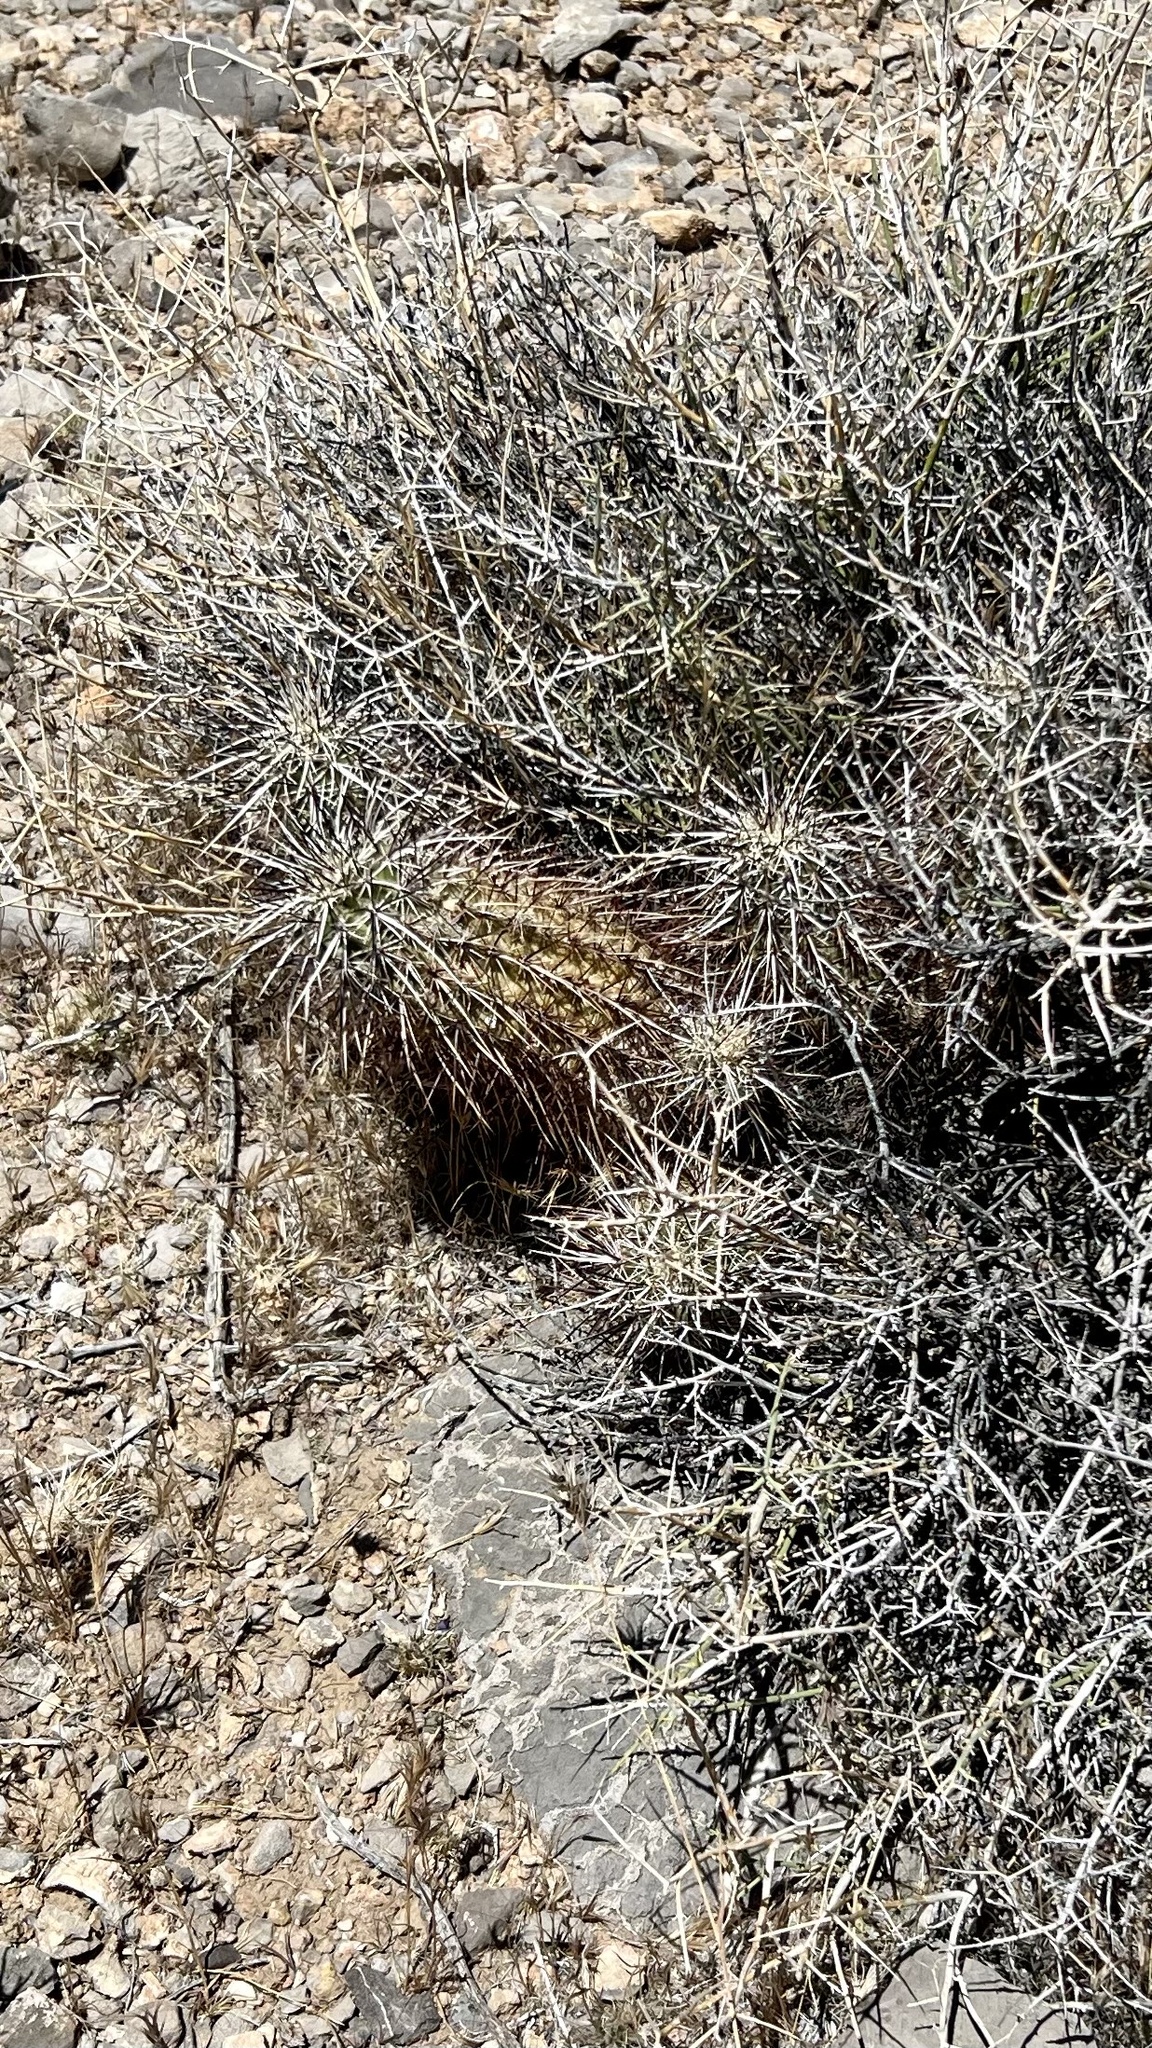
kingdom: Plantae
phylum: Tracheophyta
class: Magnoliopsida
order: Caryophyllales
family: Cactaceae
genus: Echinocereus
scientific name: Echinocereus engelmannii
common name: Engelmann's hedgehog cactus
